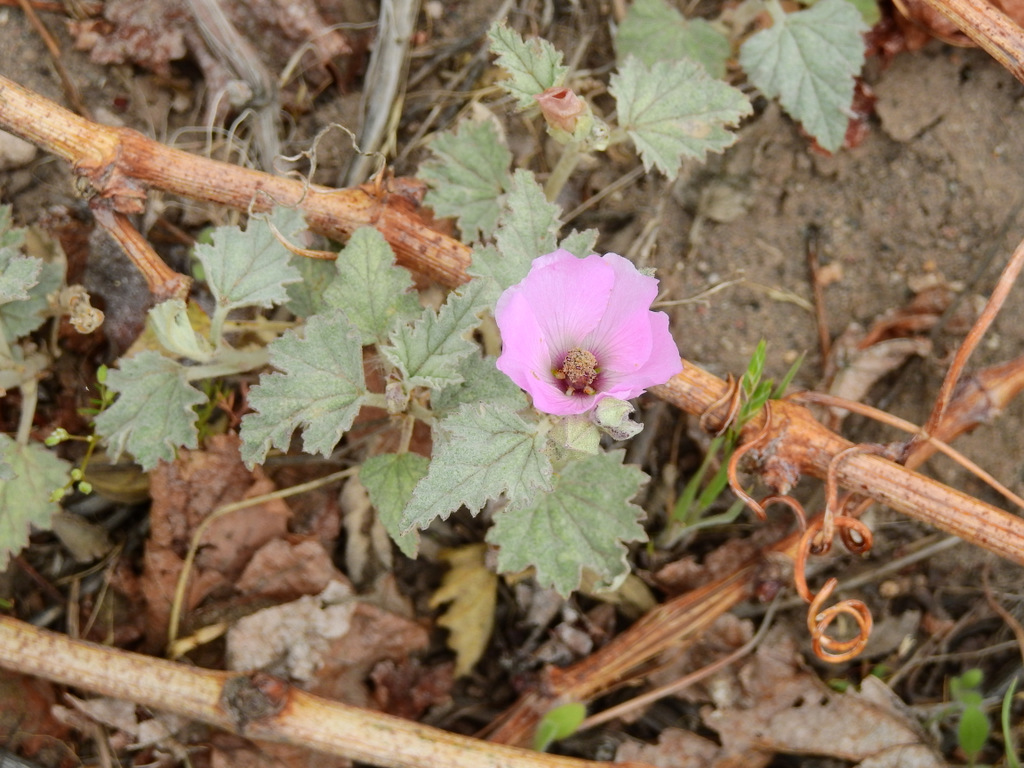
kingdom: Plantae
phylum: Tracheophyta
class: Magnoliopsida
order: Malvales
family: Malvaceae
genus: Sphaeralcea
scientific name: Sphaeralcea mendocina
